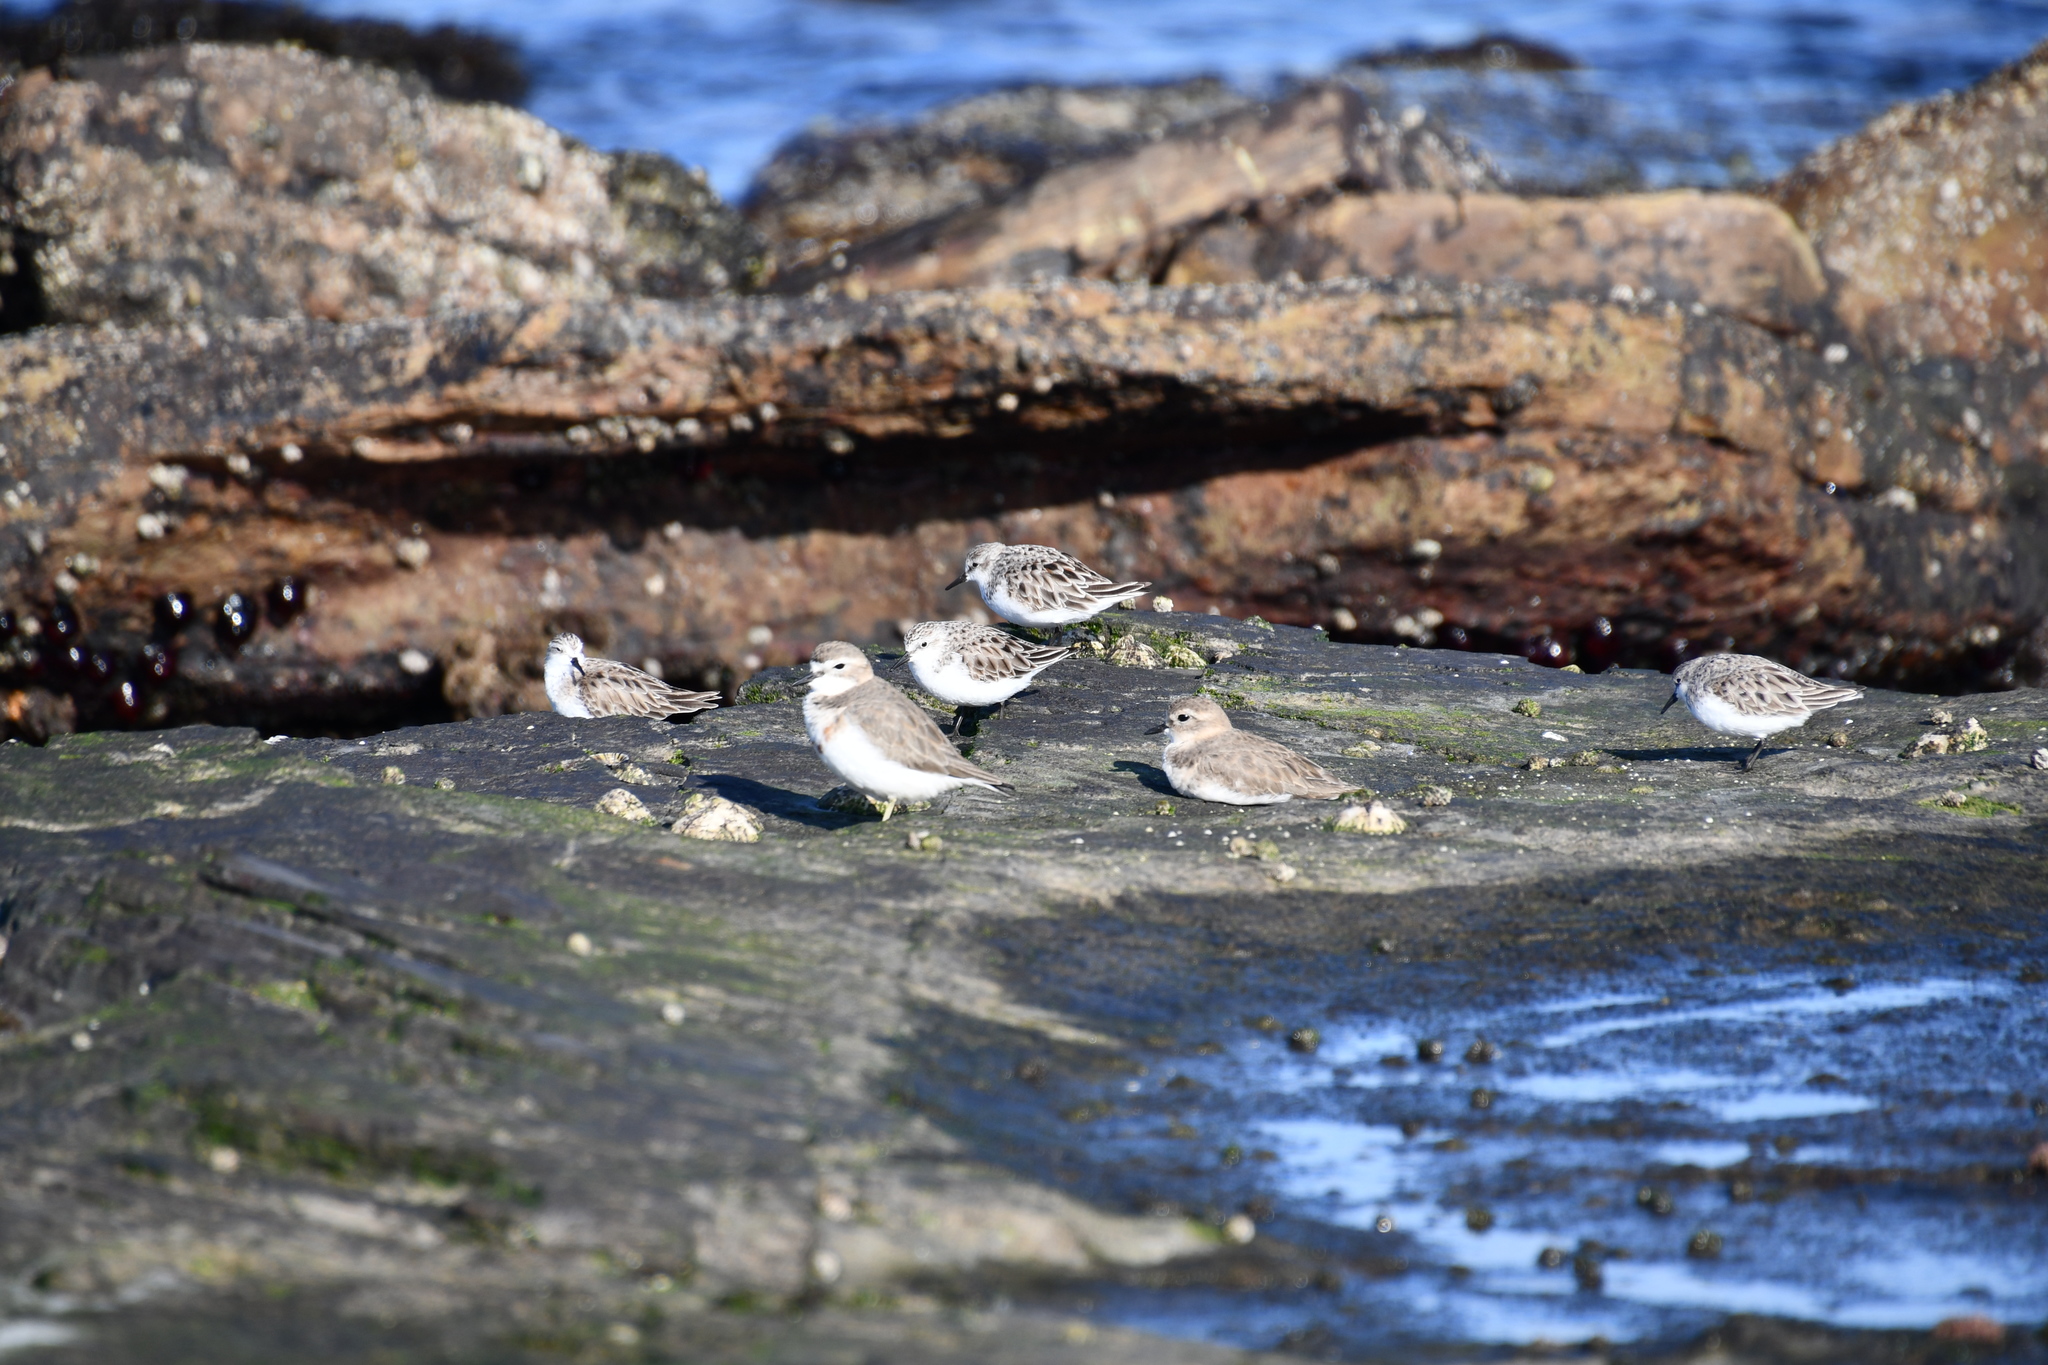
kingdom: Animalia
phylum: Chordata
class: Aves
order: Charadriiformes
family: Charadriidae
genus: Anarhynchus
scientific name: Anarhynchus
